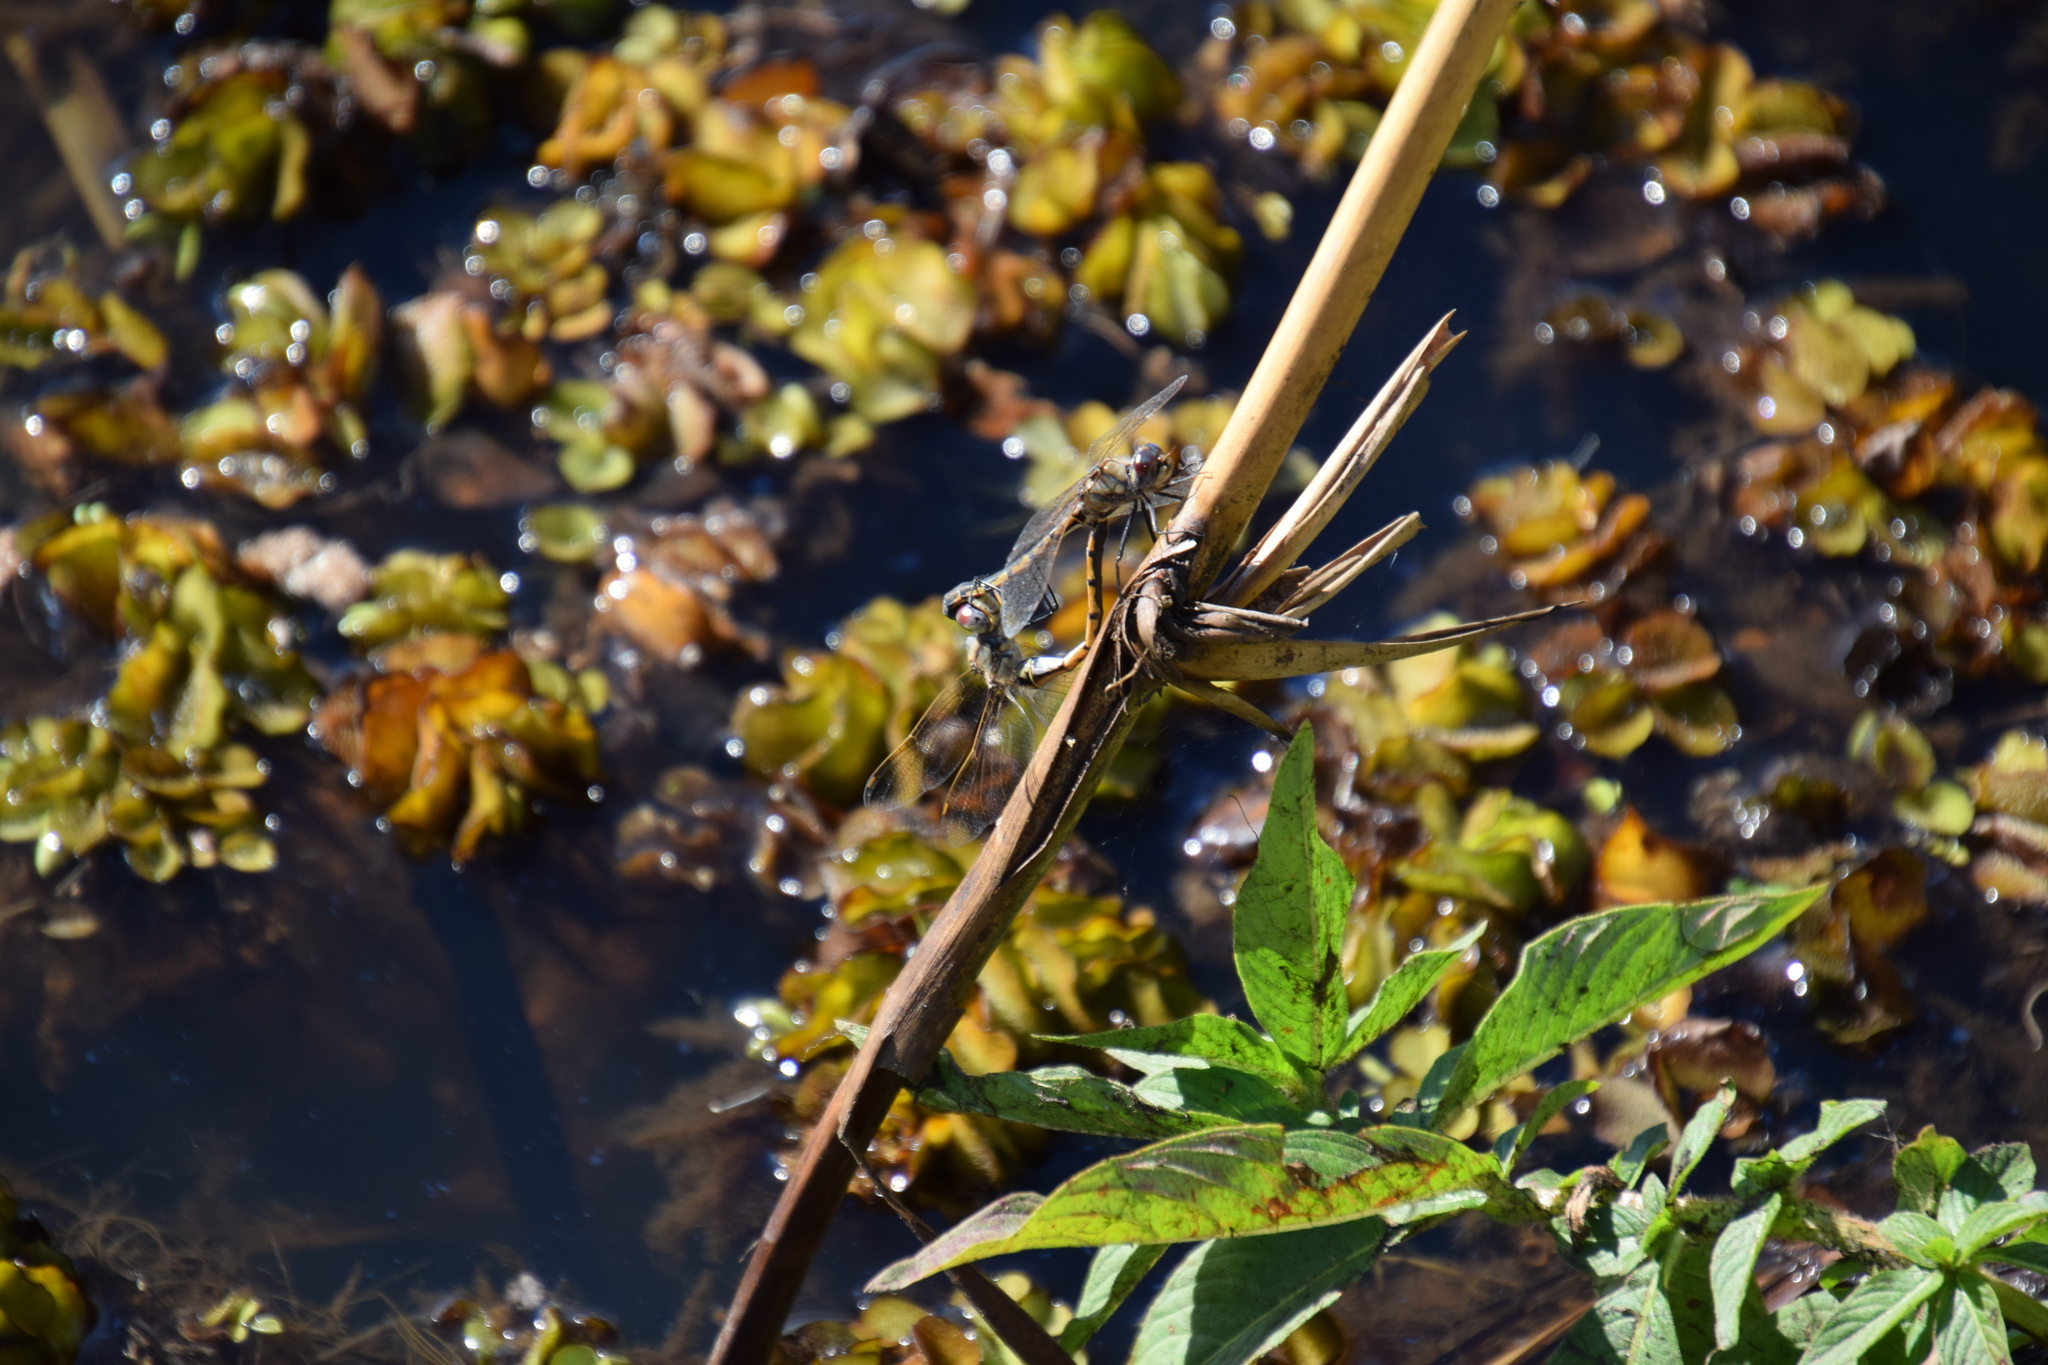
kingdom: Animalia
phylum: Arthropoda
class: Insecta
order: Odonata
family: Corduliidae
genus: Hemicordulia
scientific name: Hemicordulia tau
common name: Tau emerald
